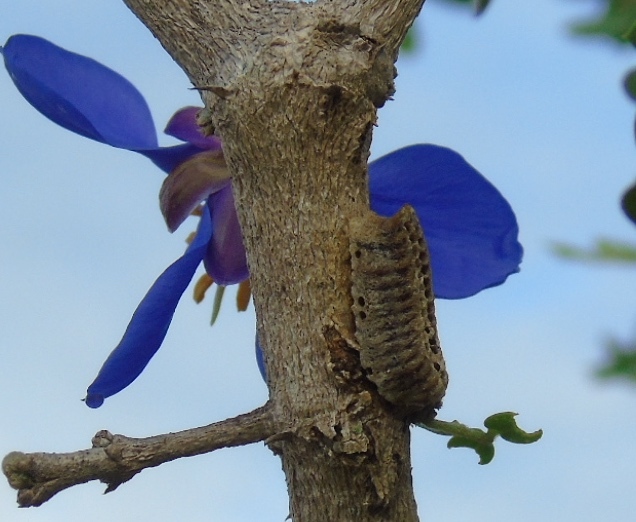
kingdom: Animalia
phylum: Arthropoda
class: Insecta
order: Mantodea
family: Eremiaphilidae
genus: Iris
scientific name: Iris oratoria
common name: Mediterranean mantis
